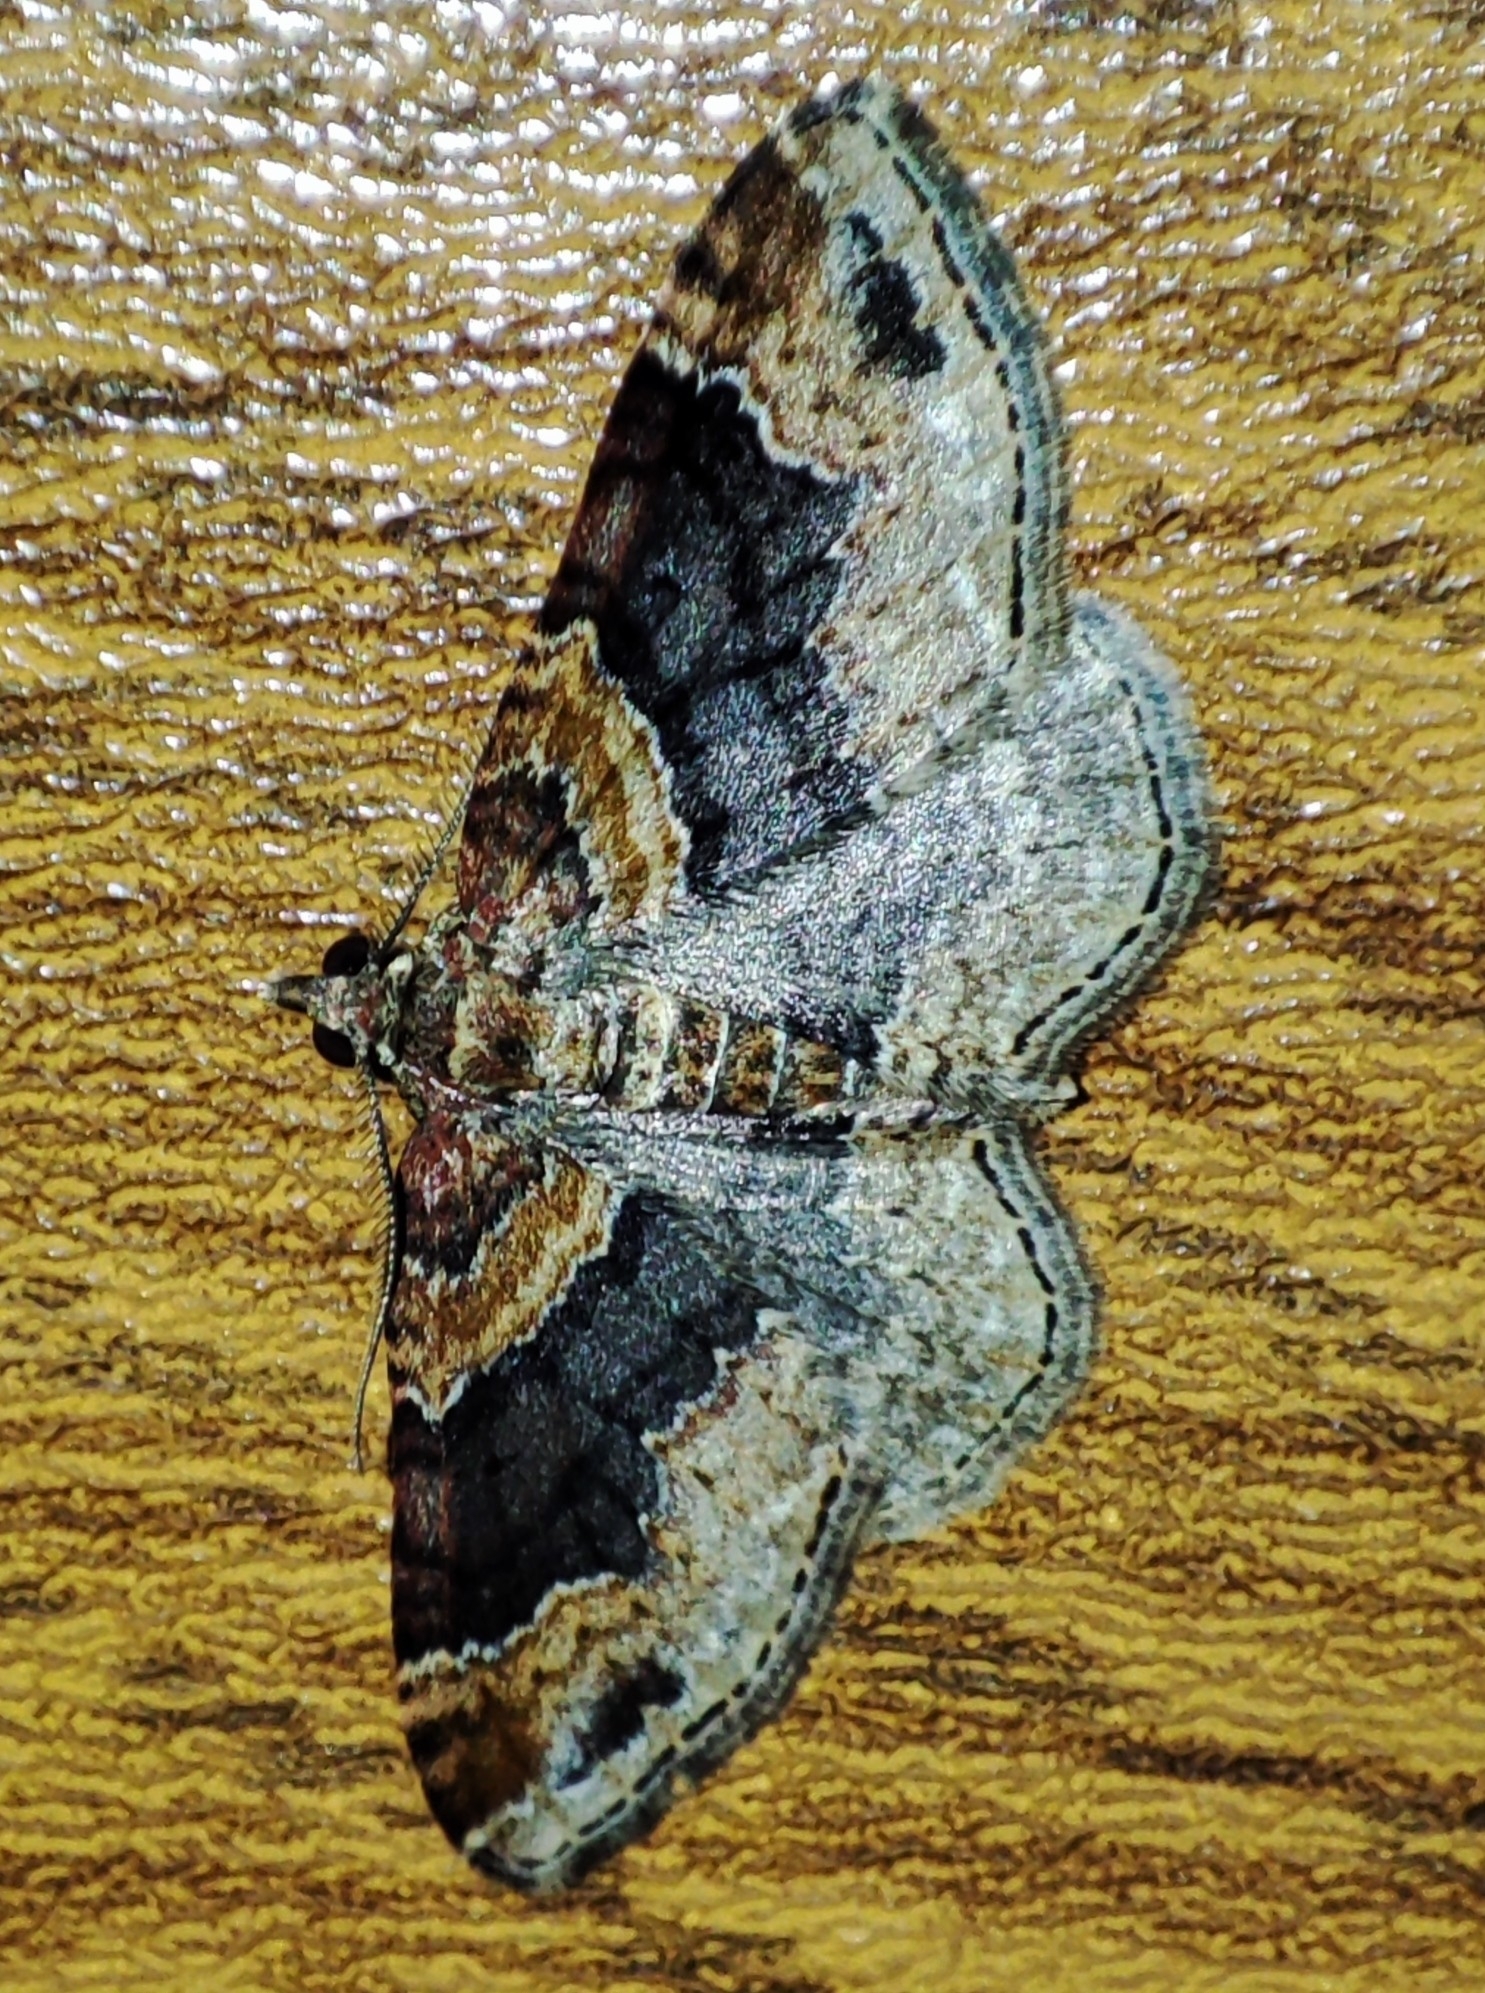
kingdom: Animalia
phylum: Arthropoda
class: Insecta
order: Lepidoptera
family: Geometridae
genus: Xanthorhoe
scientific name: Xanthorhoe ferrugata
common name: Dark-barred twin-spot carpet
